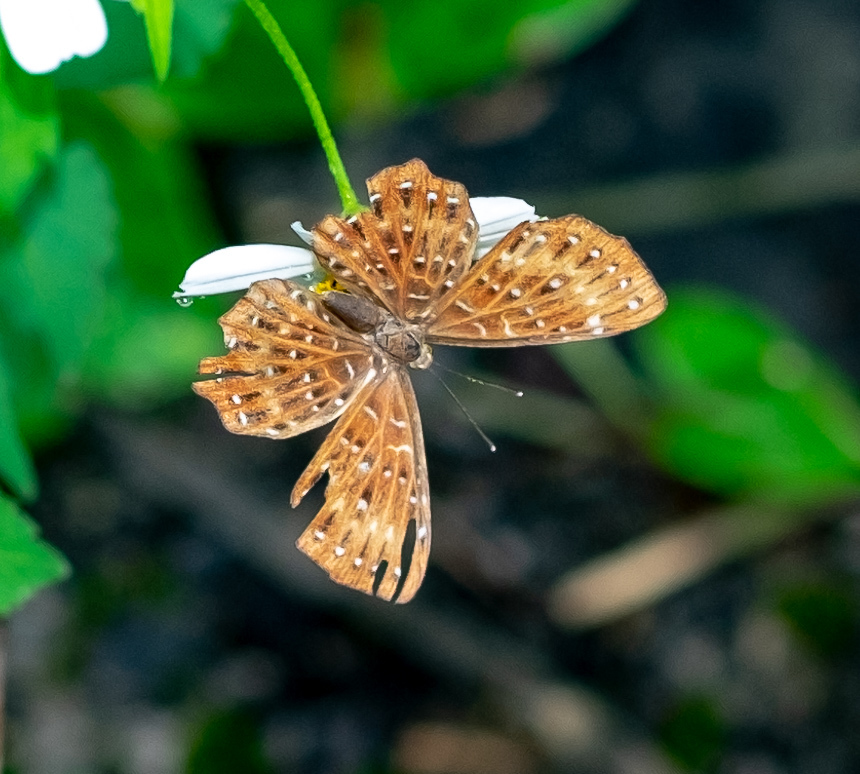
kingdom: Animalia
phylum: Arthropoda
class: Insecta
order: Lepidoptera
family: Riodinidae
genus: Zemeros
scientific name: Zemeros flegyas
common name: Punchinello
